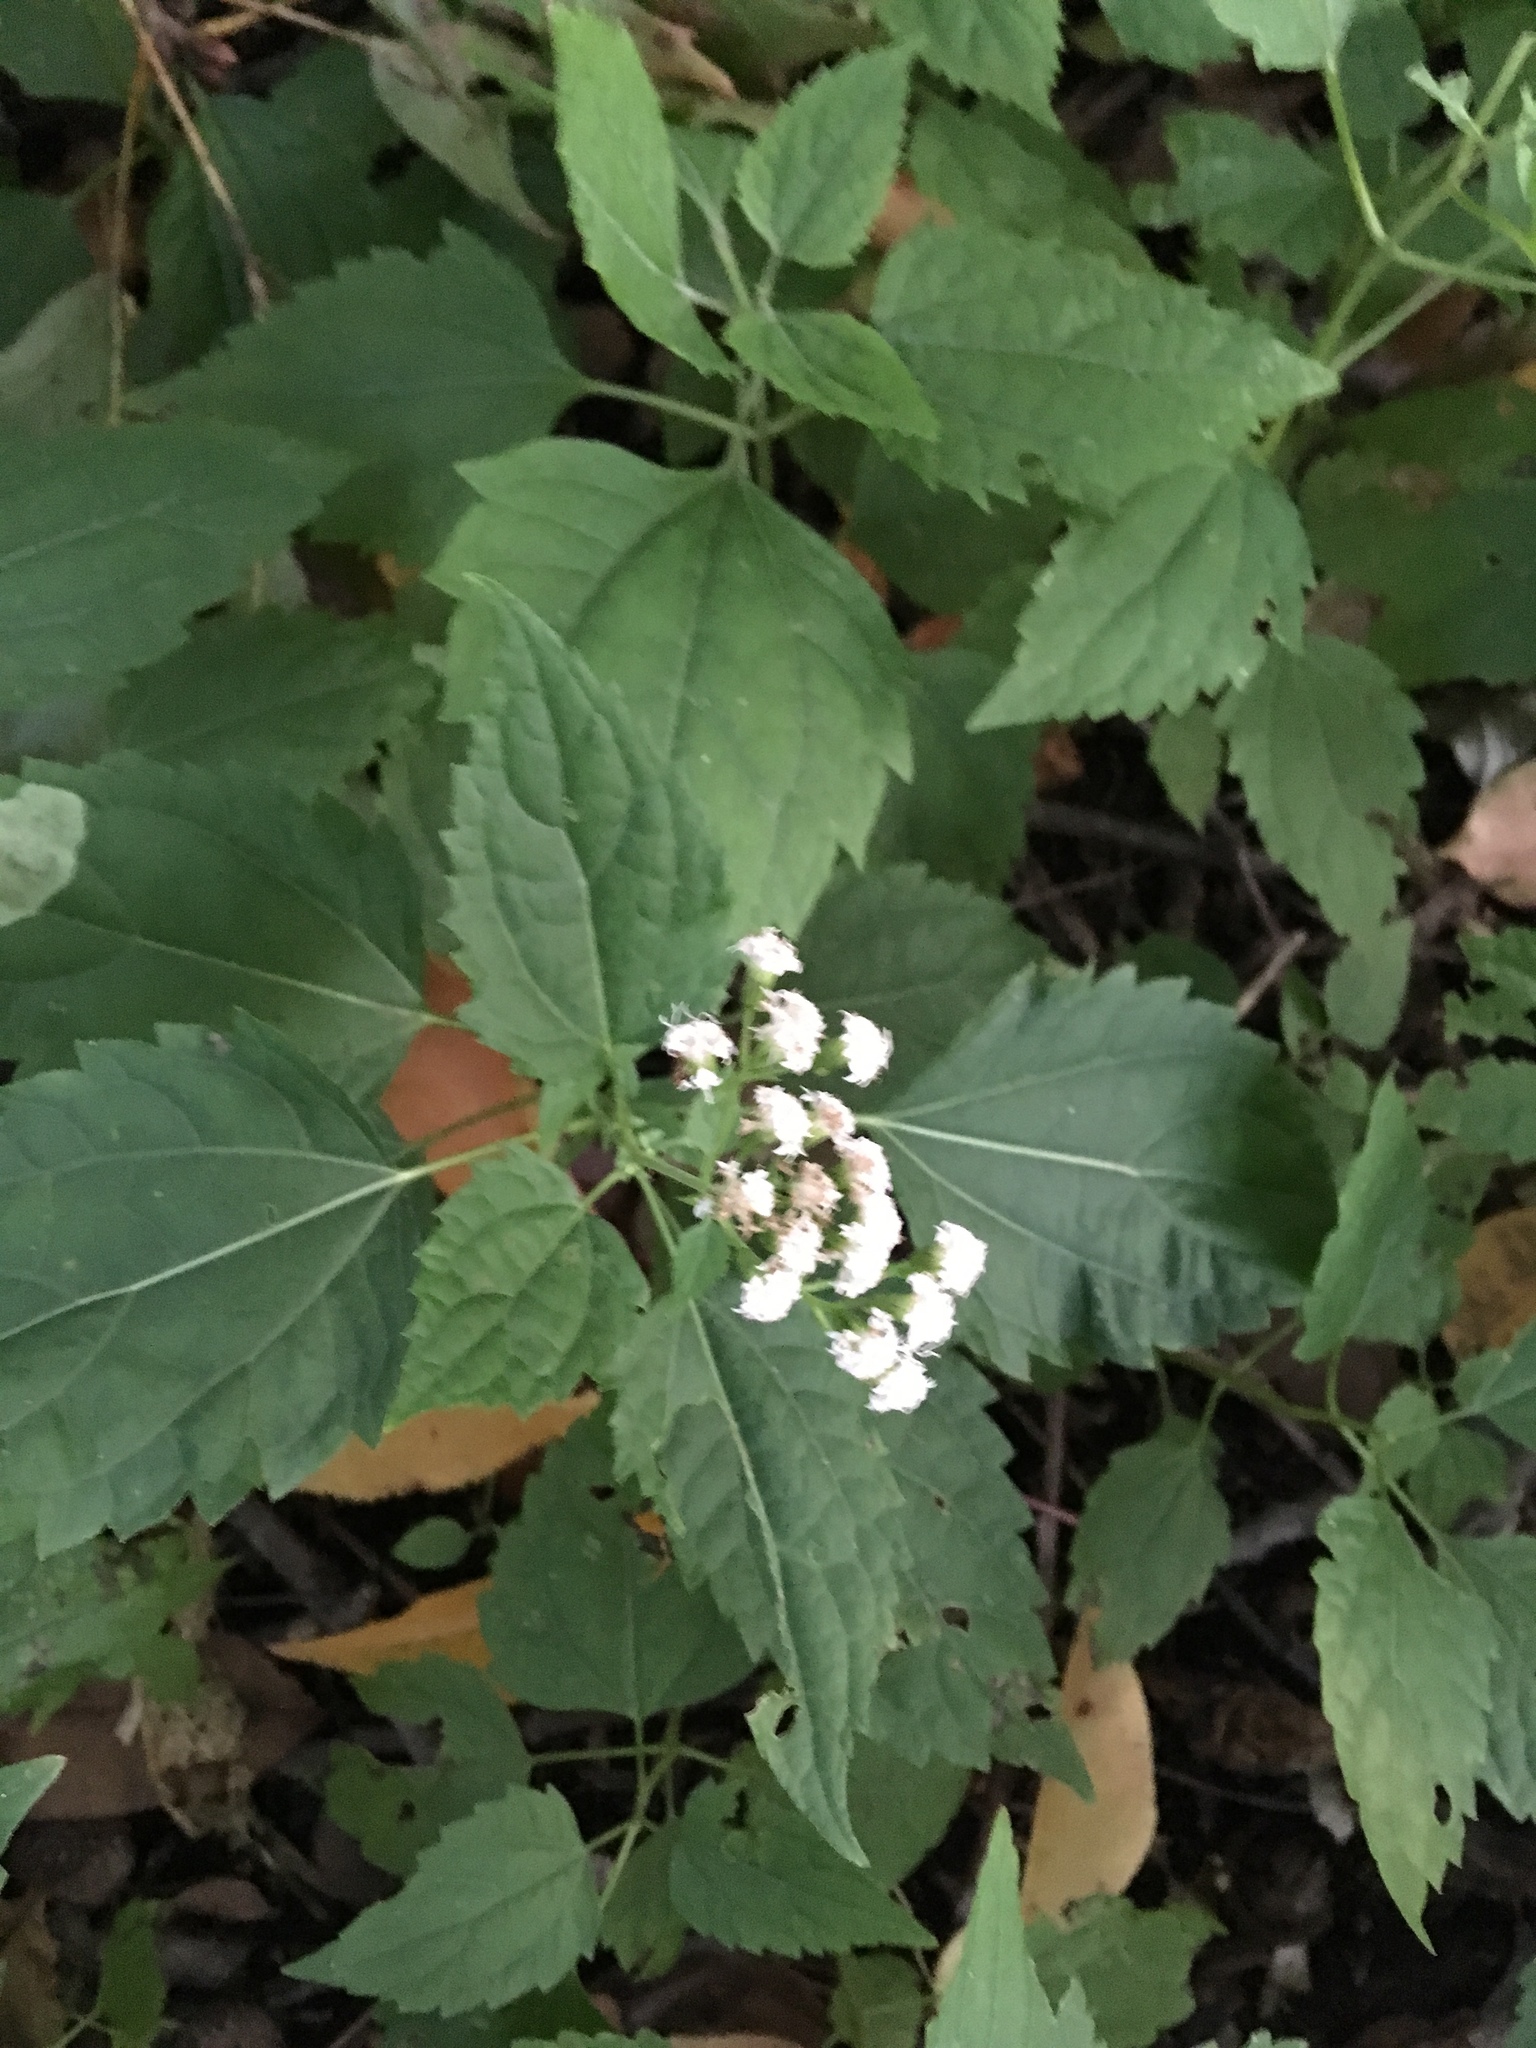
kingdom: Plantae
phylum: Tracheophyta
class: Magnoliopsida
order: Asterales
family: Asteraceae
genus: Ageratina
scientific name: Ageratina altissima
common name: White snakeroot
